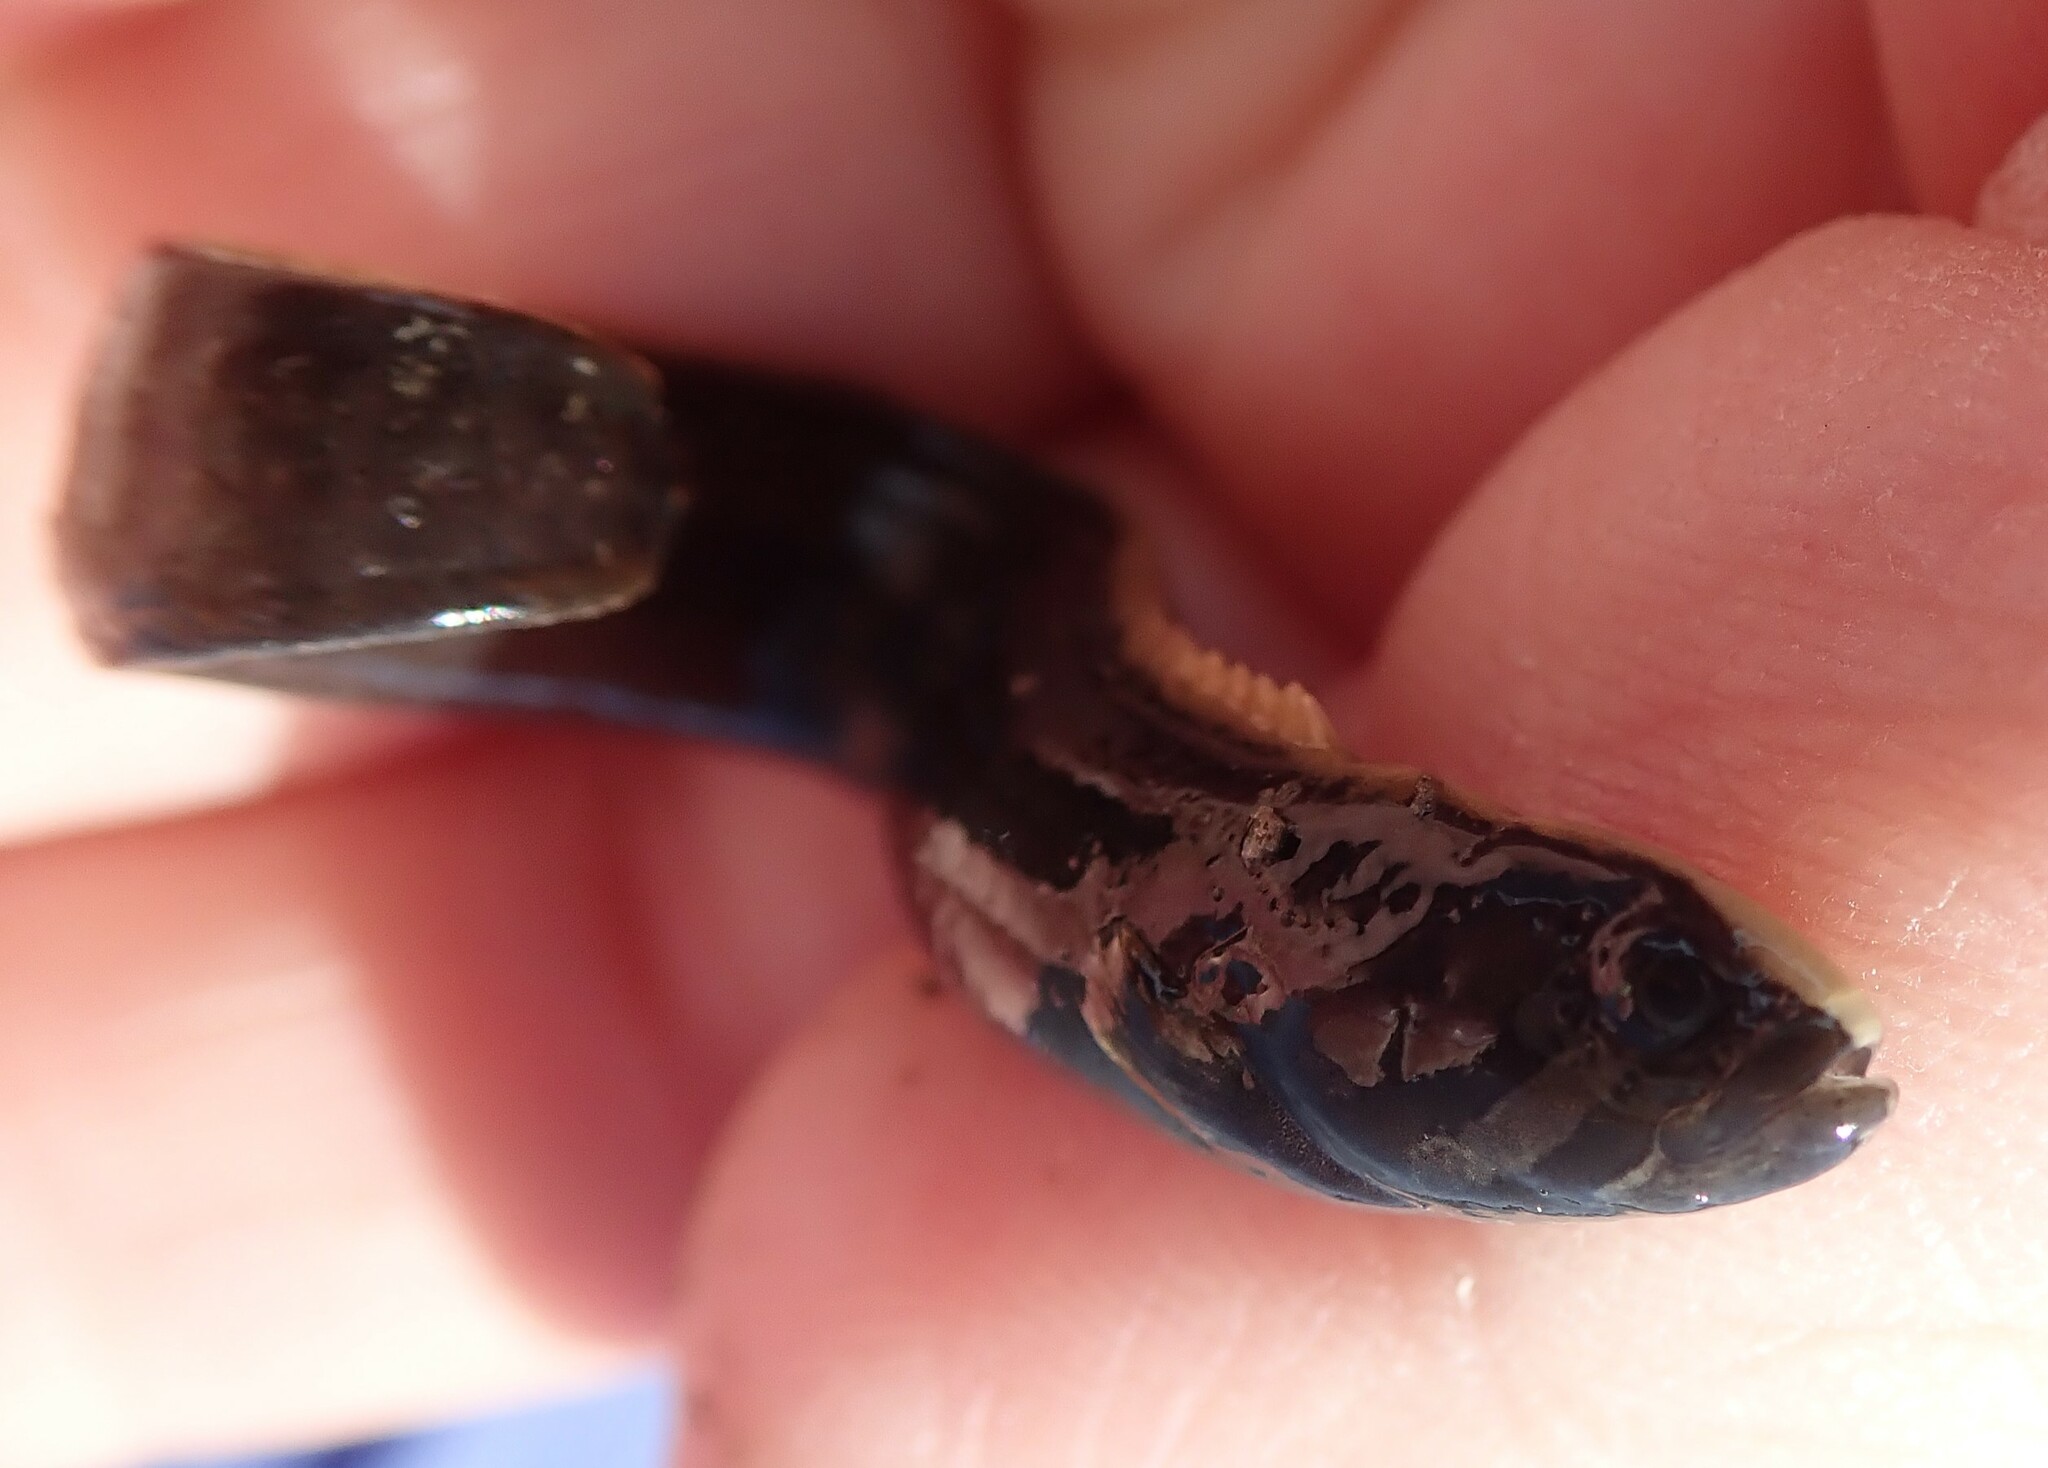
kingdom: Animalia
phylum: Chordata
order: Perciformes
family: Stichaeidae
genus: Cebidichthys
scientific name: Cebidichthys violaceus
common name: Monkeyface prickleback
